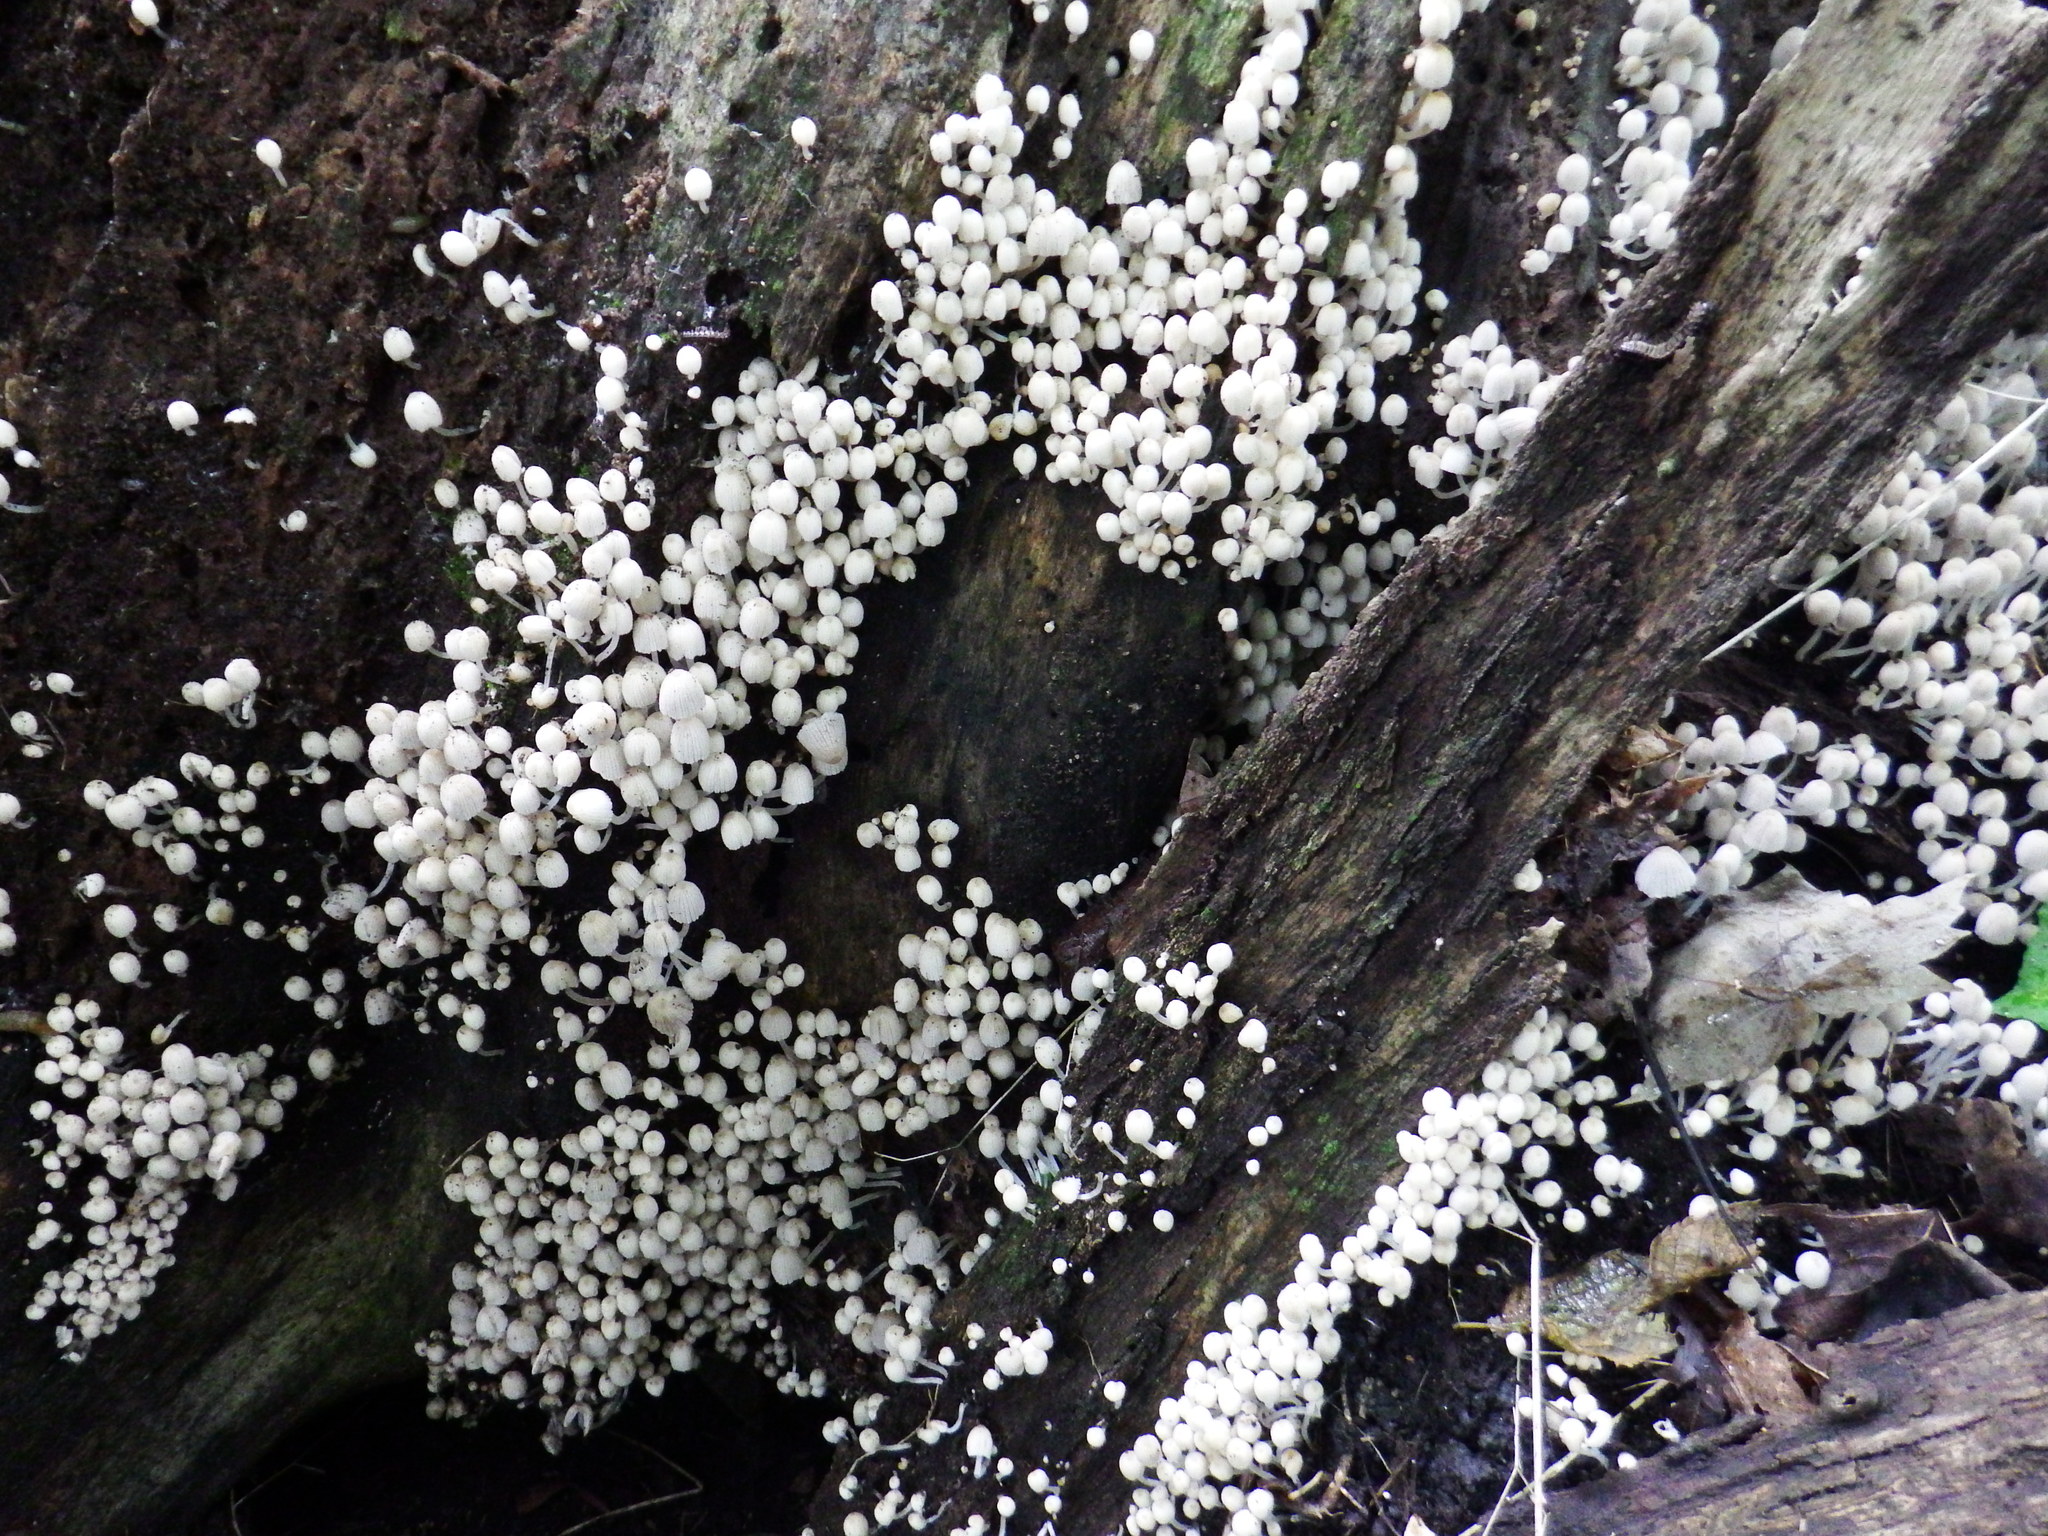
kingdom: Fungi
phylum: Basidiomycota
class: Agaricomycetes
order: Agaricales
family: Psathyrellaceae
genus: Coprinellus
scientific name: Coprinellus disseminatus
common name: Fairies' bonnets
